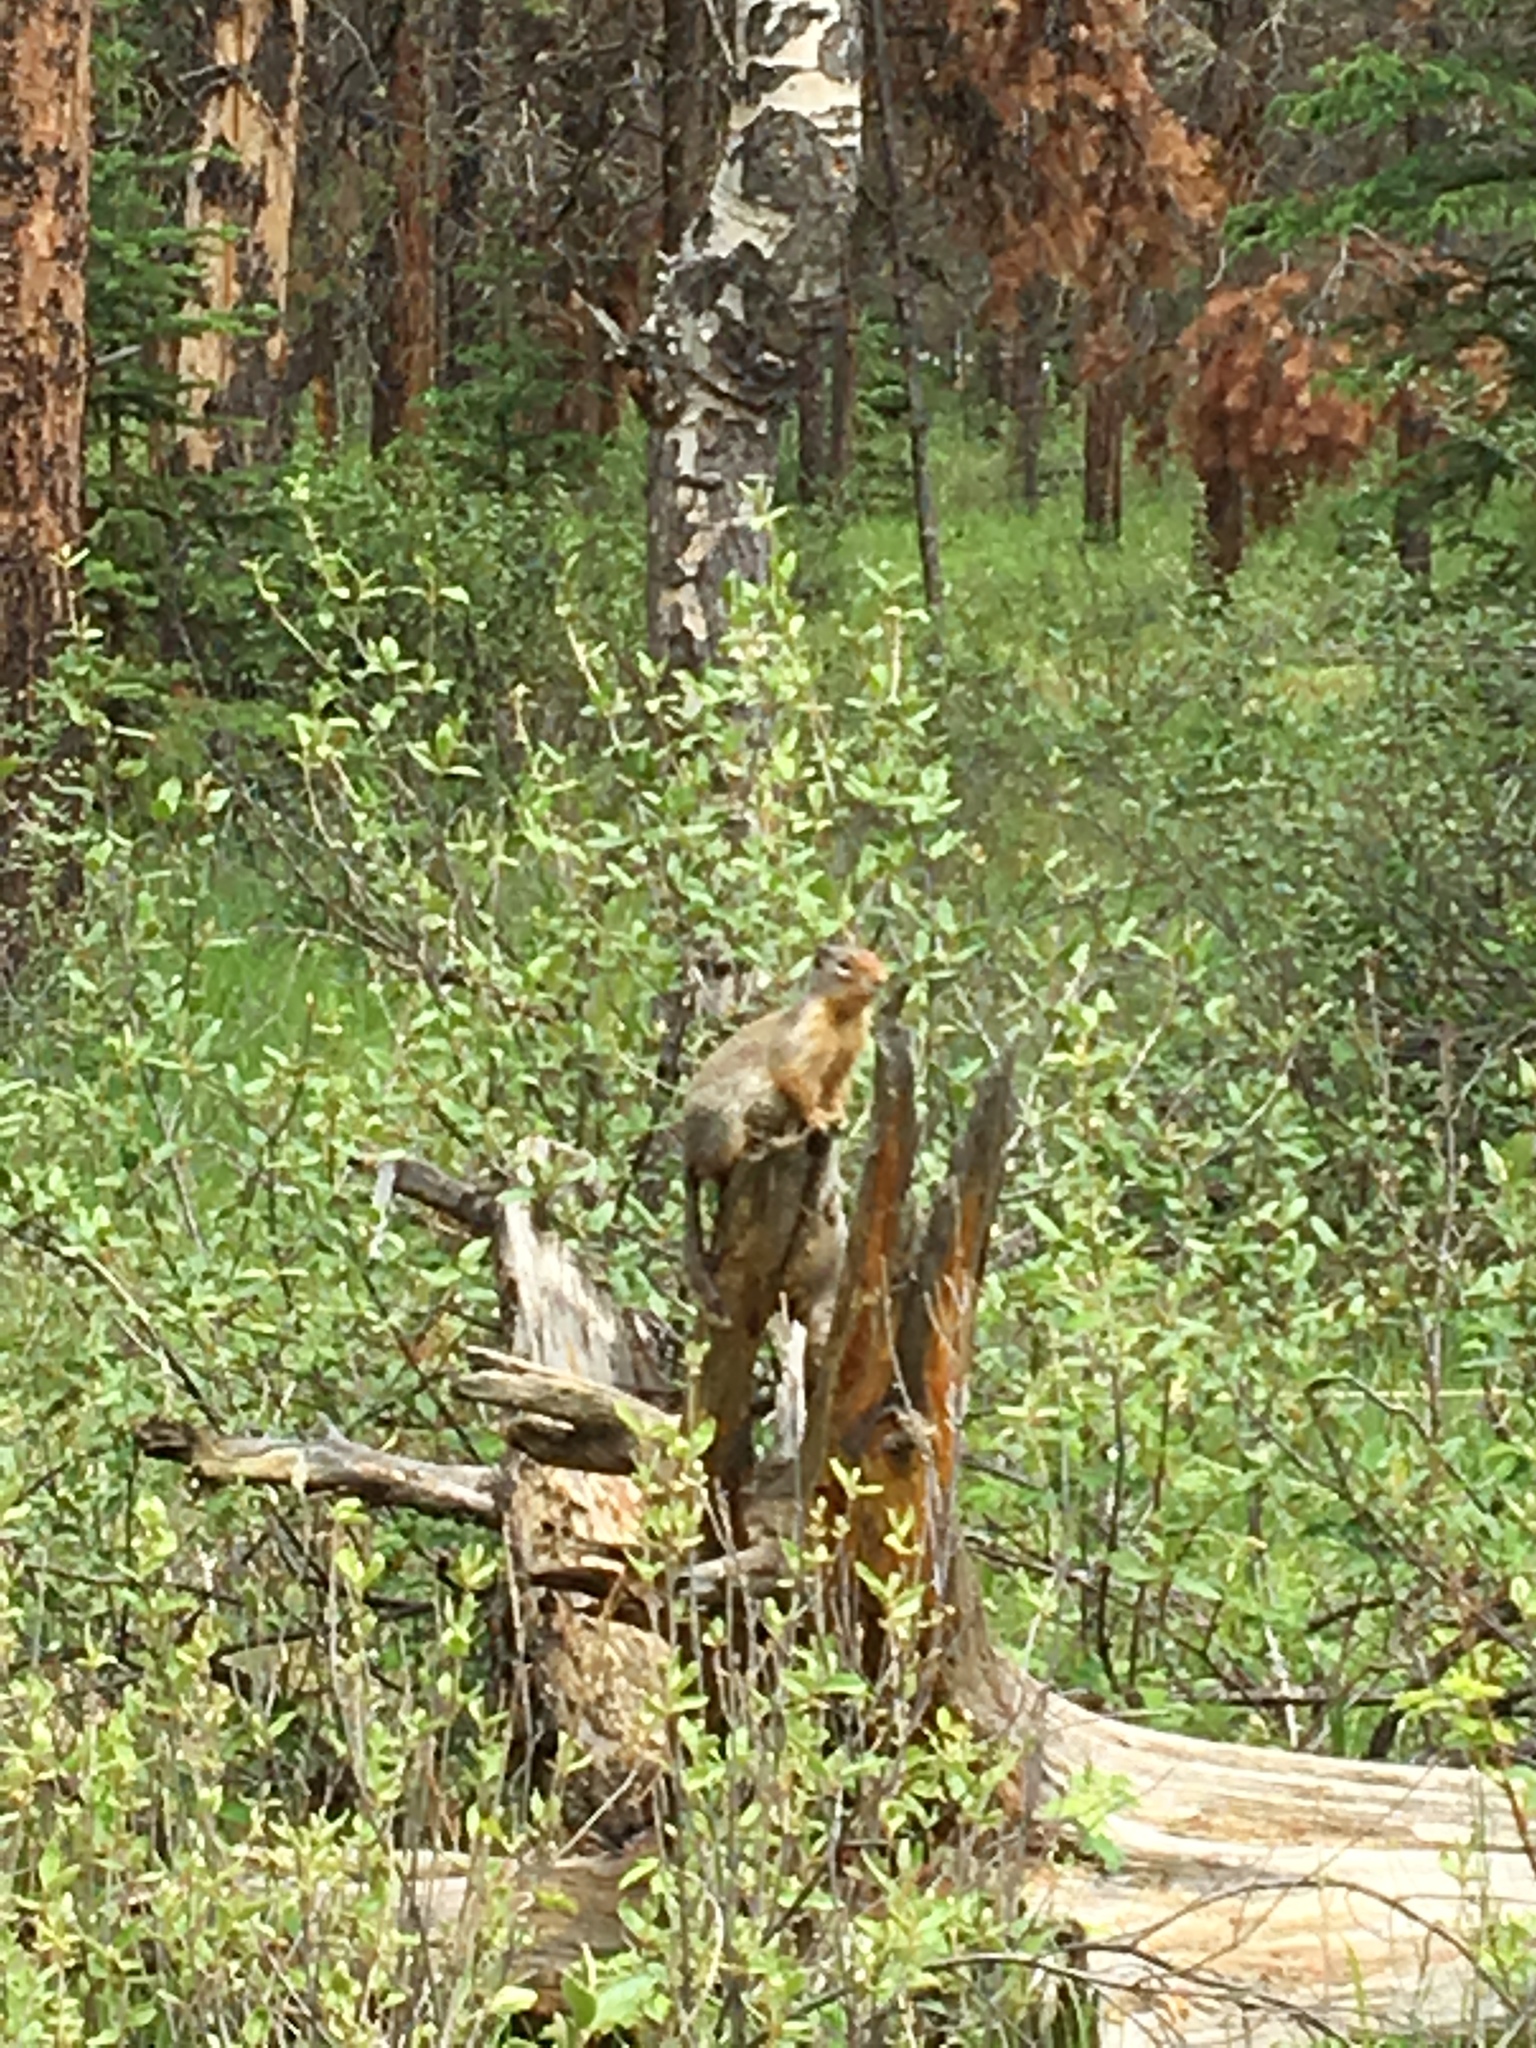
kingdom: Animalia
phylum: Chordata
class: Mammalia
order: Rodentia
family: Sciuridae
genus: Urocitellus
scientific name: Urocitellus columbianus
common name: Columbian ground squirrel
